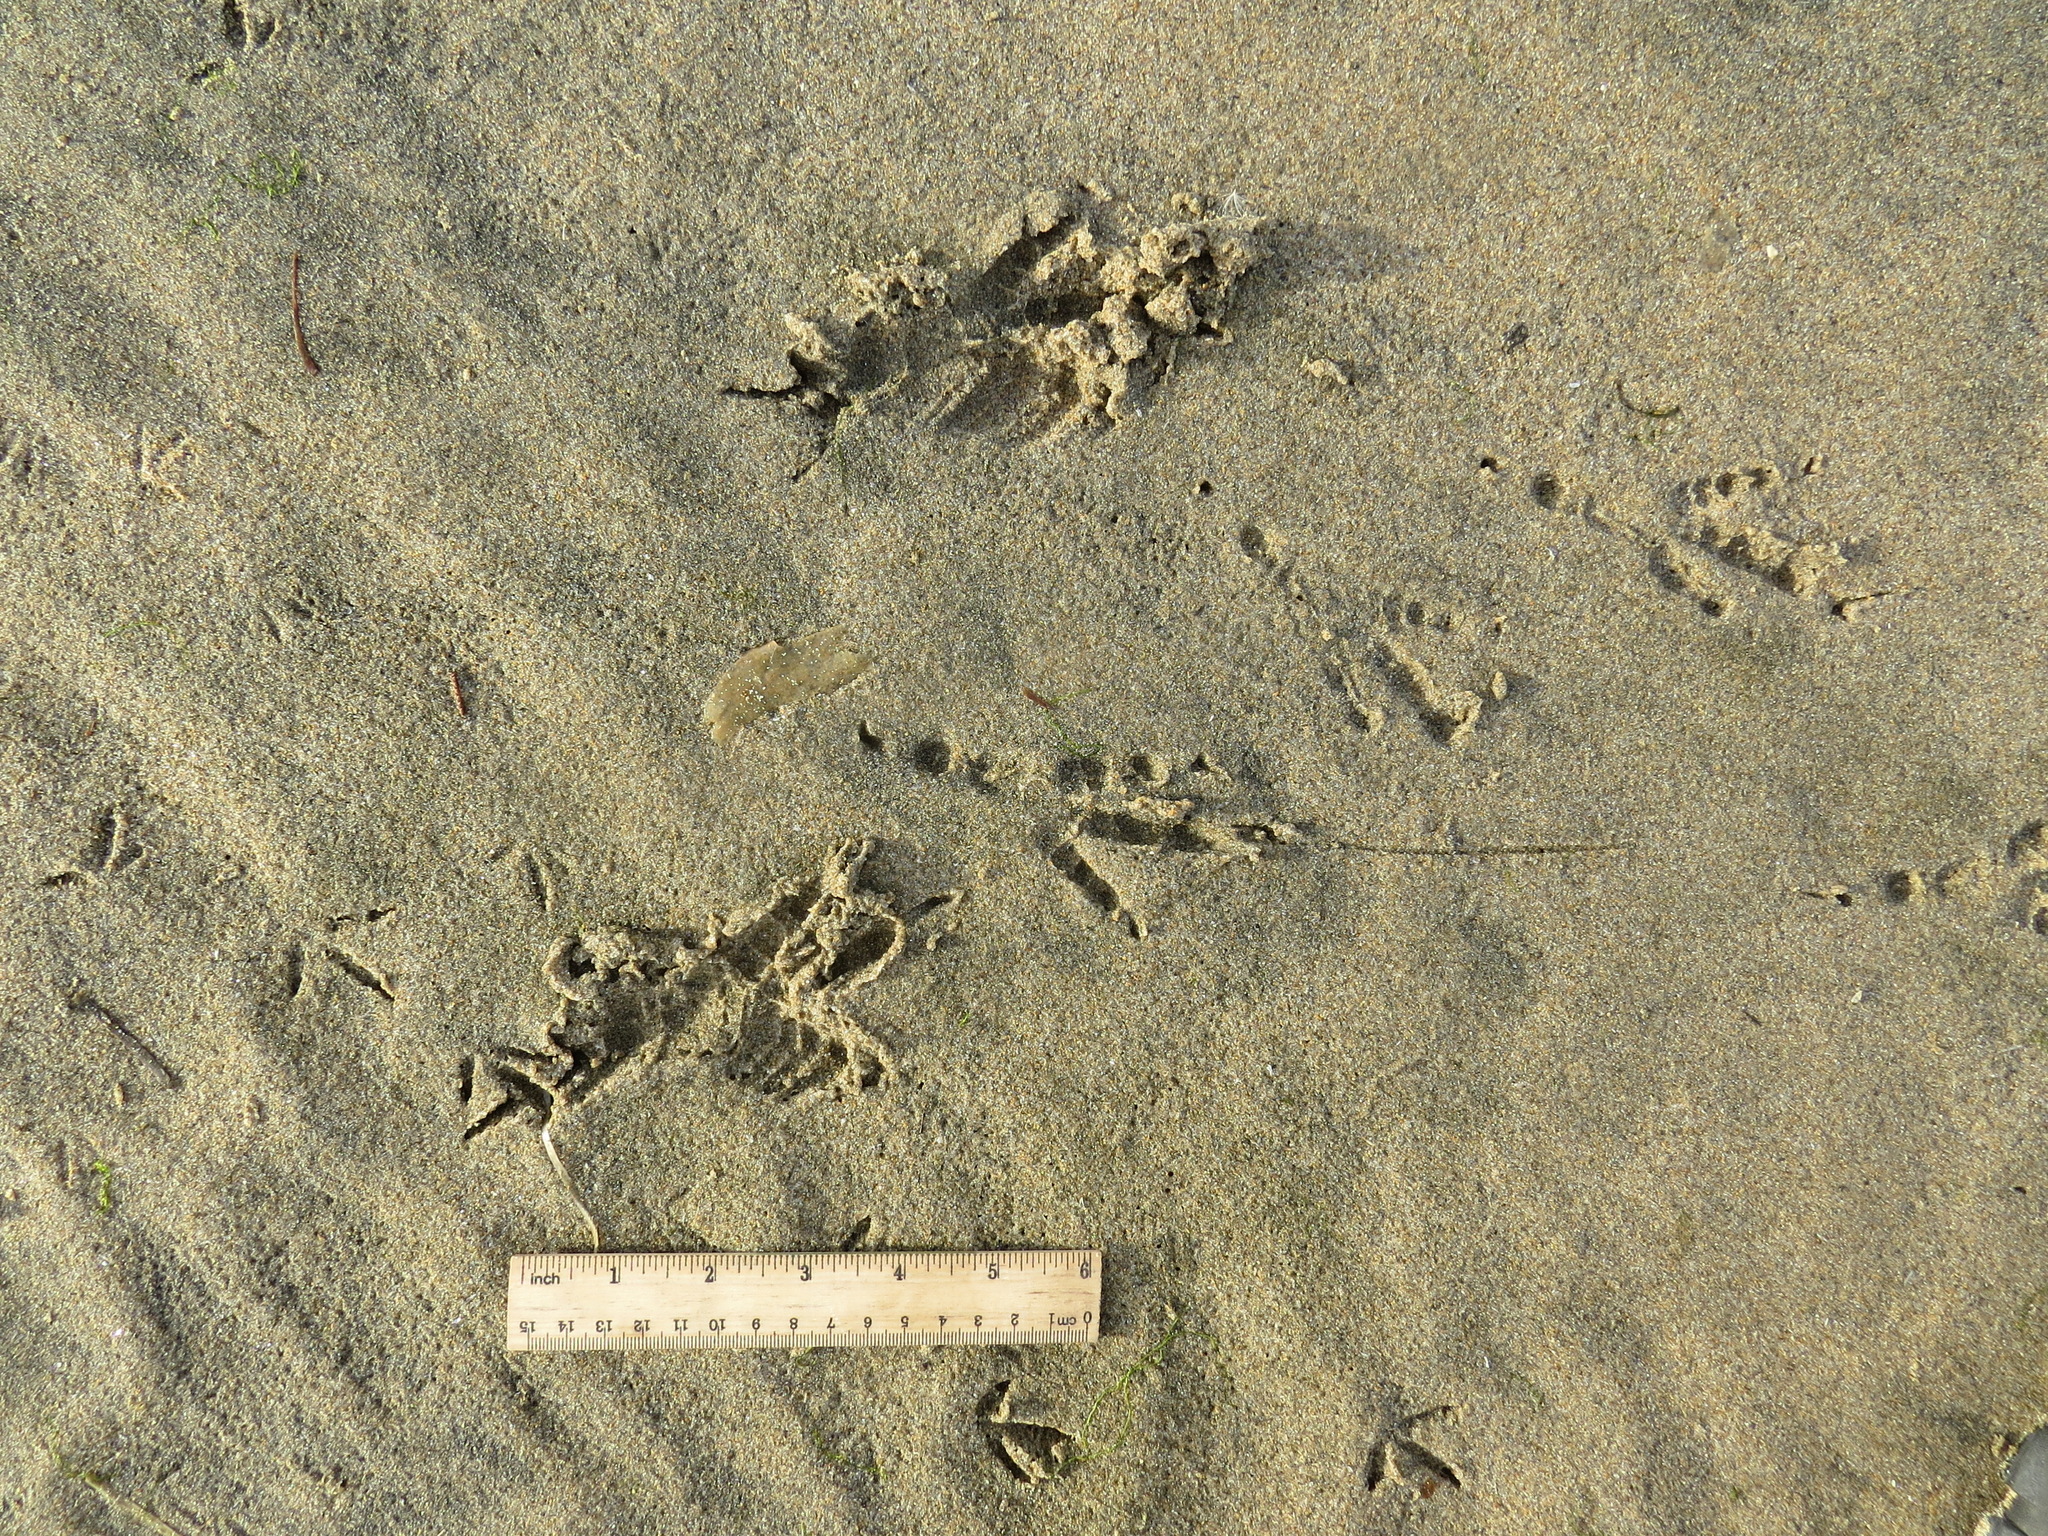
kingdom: Animalia
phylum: Chordata
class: Aves
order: Passeriformes
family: Corvidae
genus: Corvus
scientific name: Corvus corax
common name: Common raven
